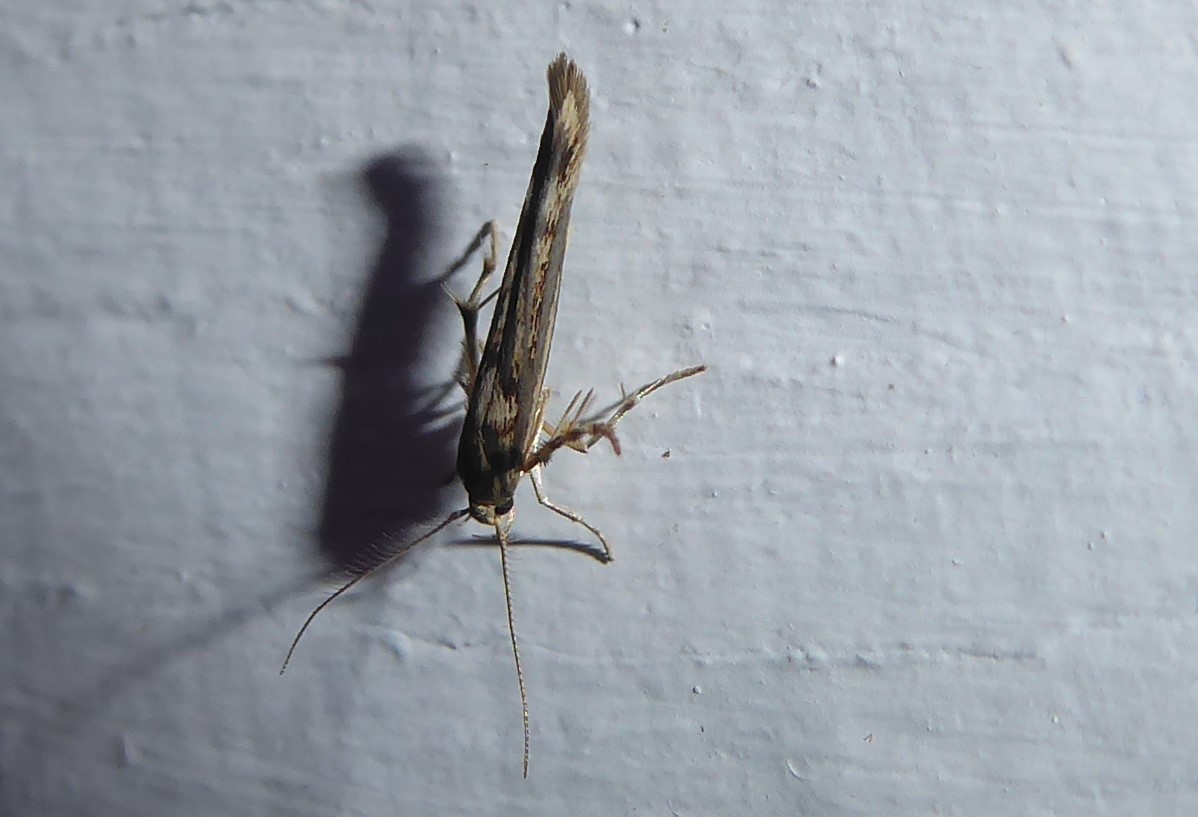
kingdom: Animalia
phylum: Arthropoda
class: Insecta
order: Lepidoptera
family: Stathmopodidae
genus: Stathmopoda
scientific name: Stathmopoda plumbiflua
